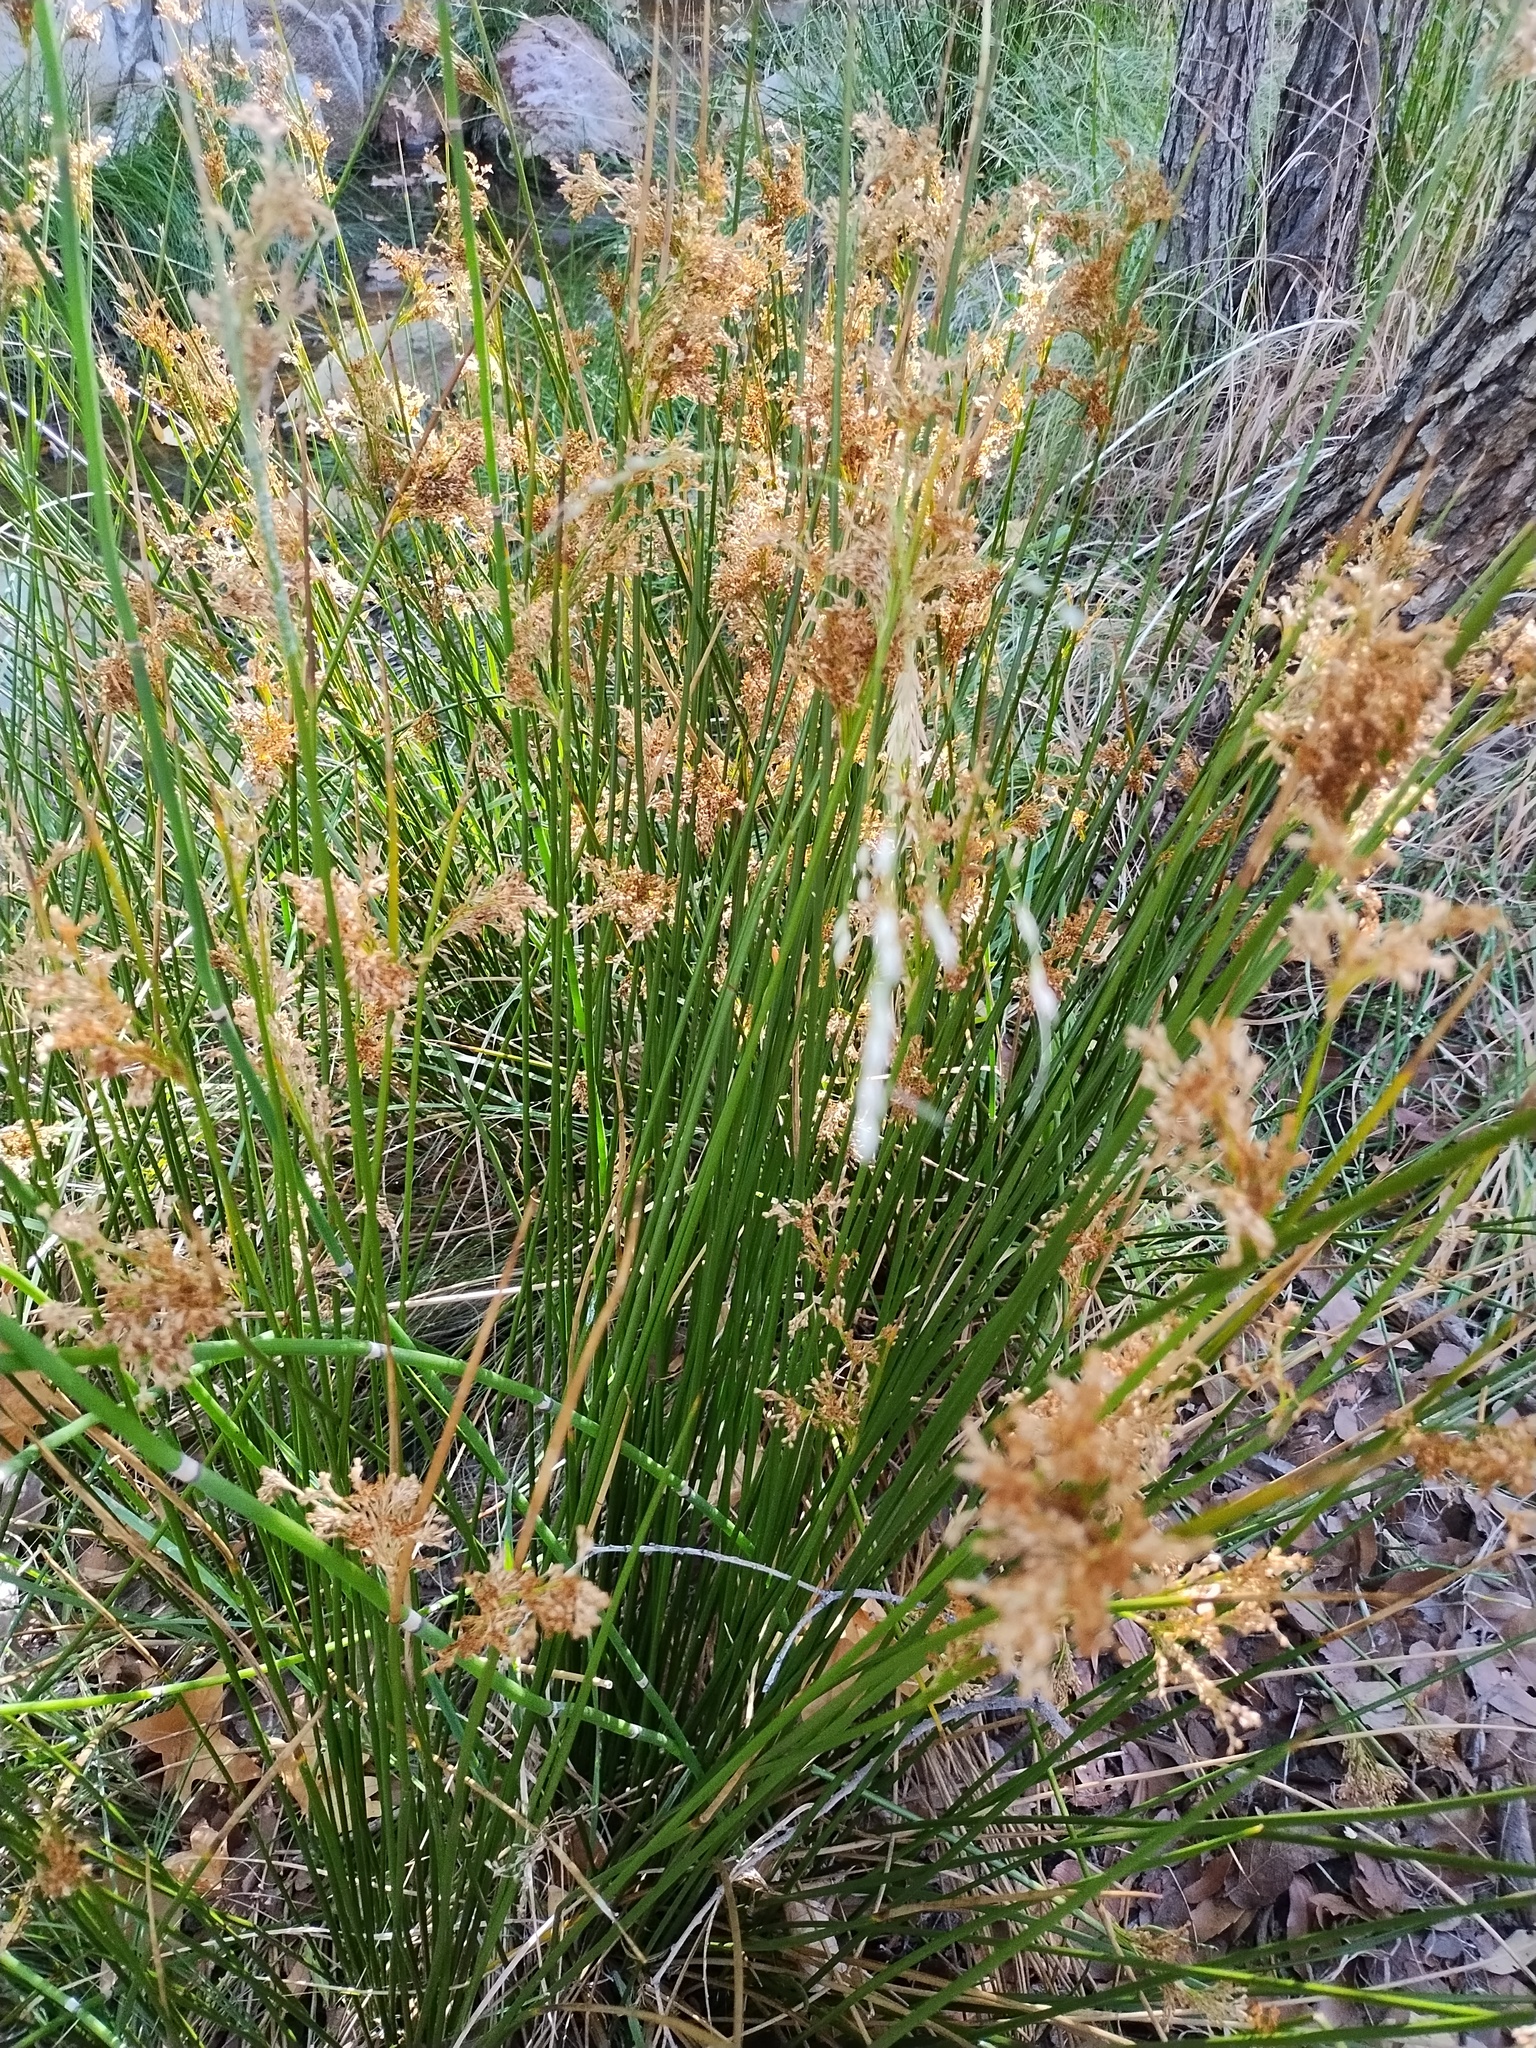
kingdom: Plantae
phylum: Tracheophyta
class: Liliopsida
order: Poales
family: Juncaceae
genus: Juncus
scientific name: Juncus effusus
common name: Soft rush
